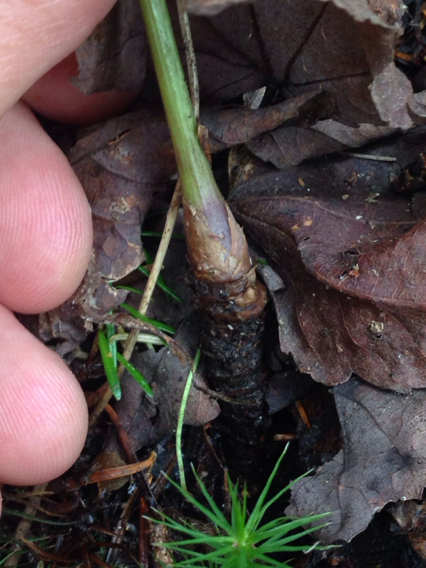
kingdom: Plantae
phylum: Tracheophyta
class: Magnoliopsida
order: Apiales
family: Araliaceae
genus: Aralia
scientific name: Aralia nudicaulis
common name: Wild sarsaparilla
